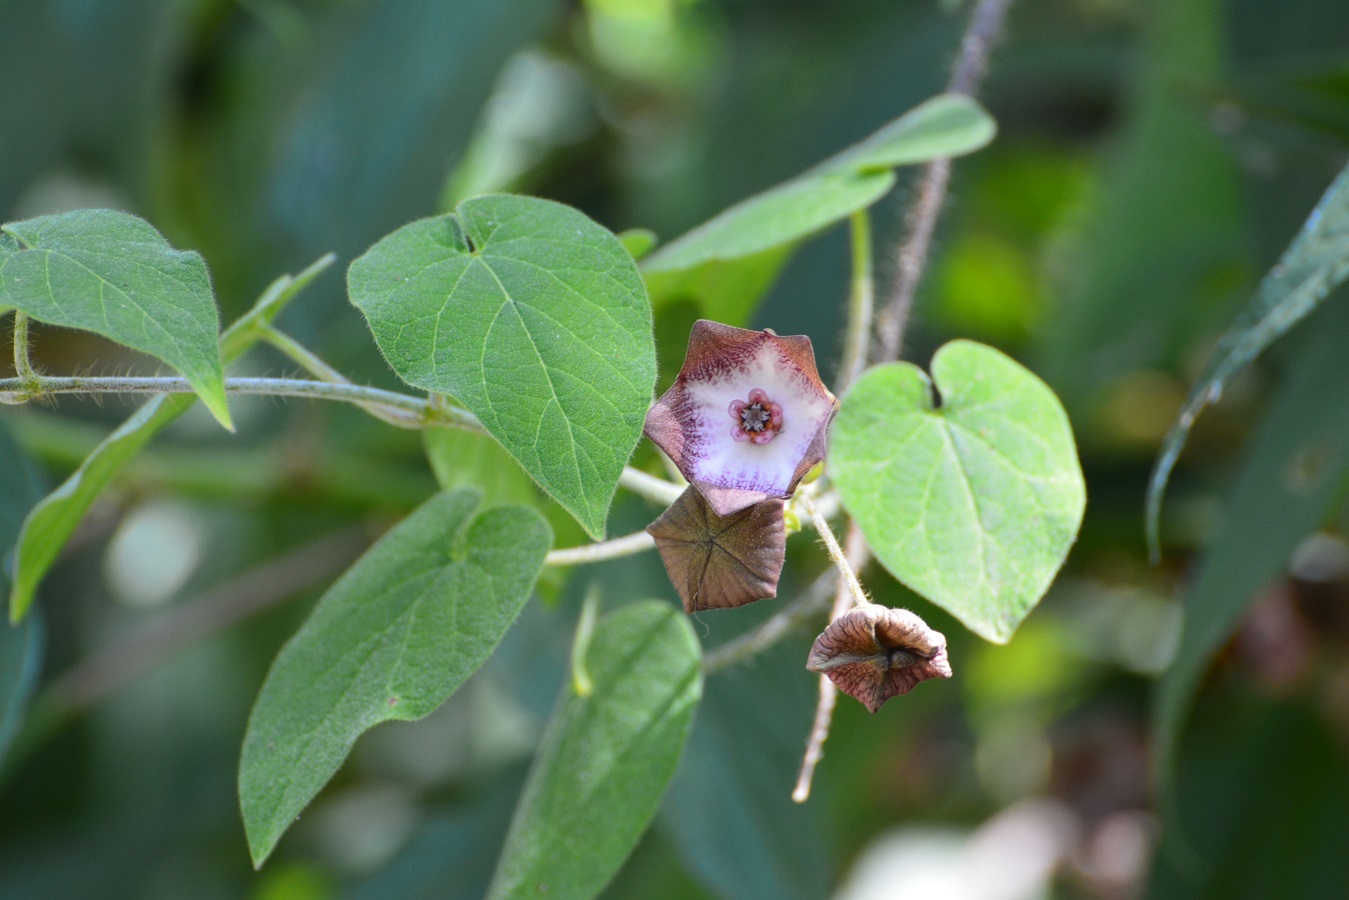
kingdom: Plantae
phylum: Tracheophyta
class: Magnoliopsida
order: Gentianales
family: Apocynaceae
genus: Polystemma
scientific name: Polystemma guatemalense
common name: Arborescente rattan
